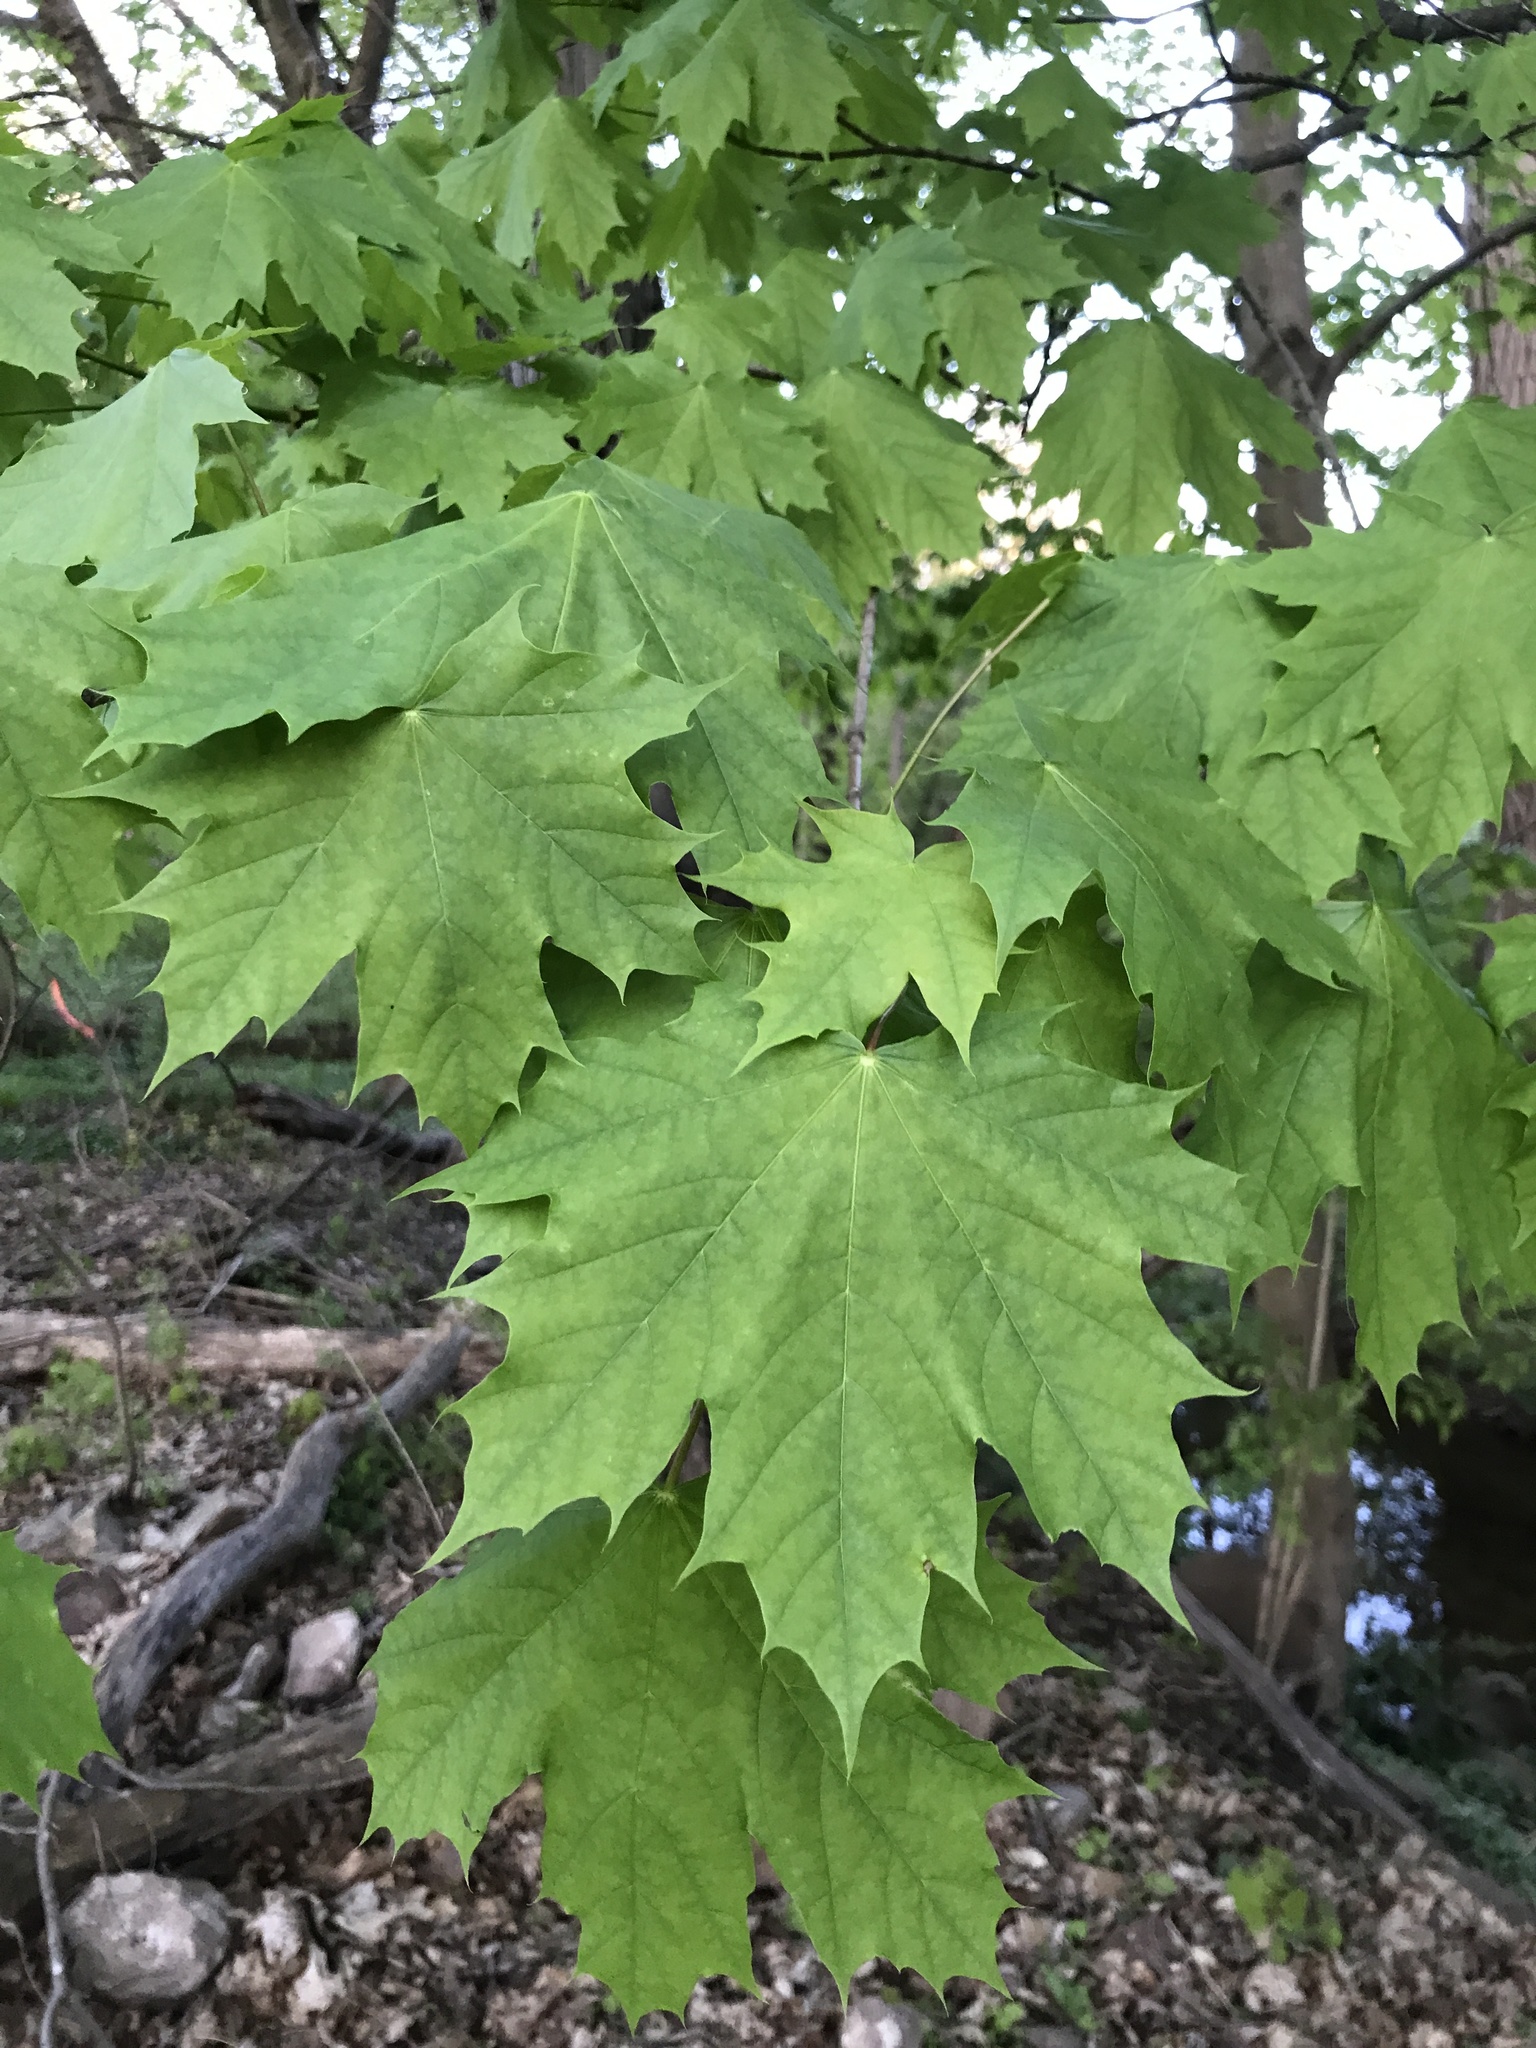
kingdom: Plantae
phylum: Tracheophyta
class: Magnoliopsida
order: Sapindales
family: Sapindaceae
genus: Acer
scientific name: Acer platanoides
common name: Norway maple
